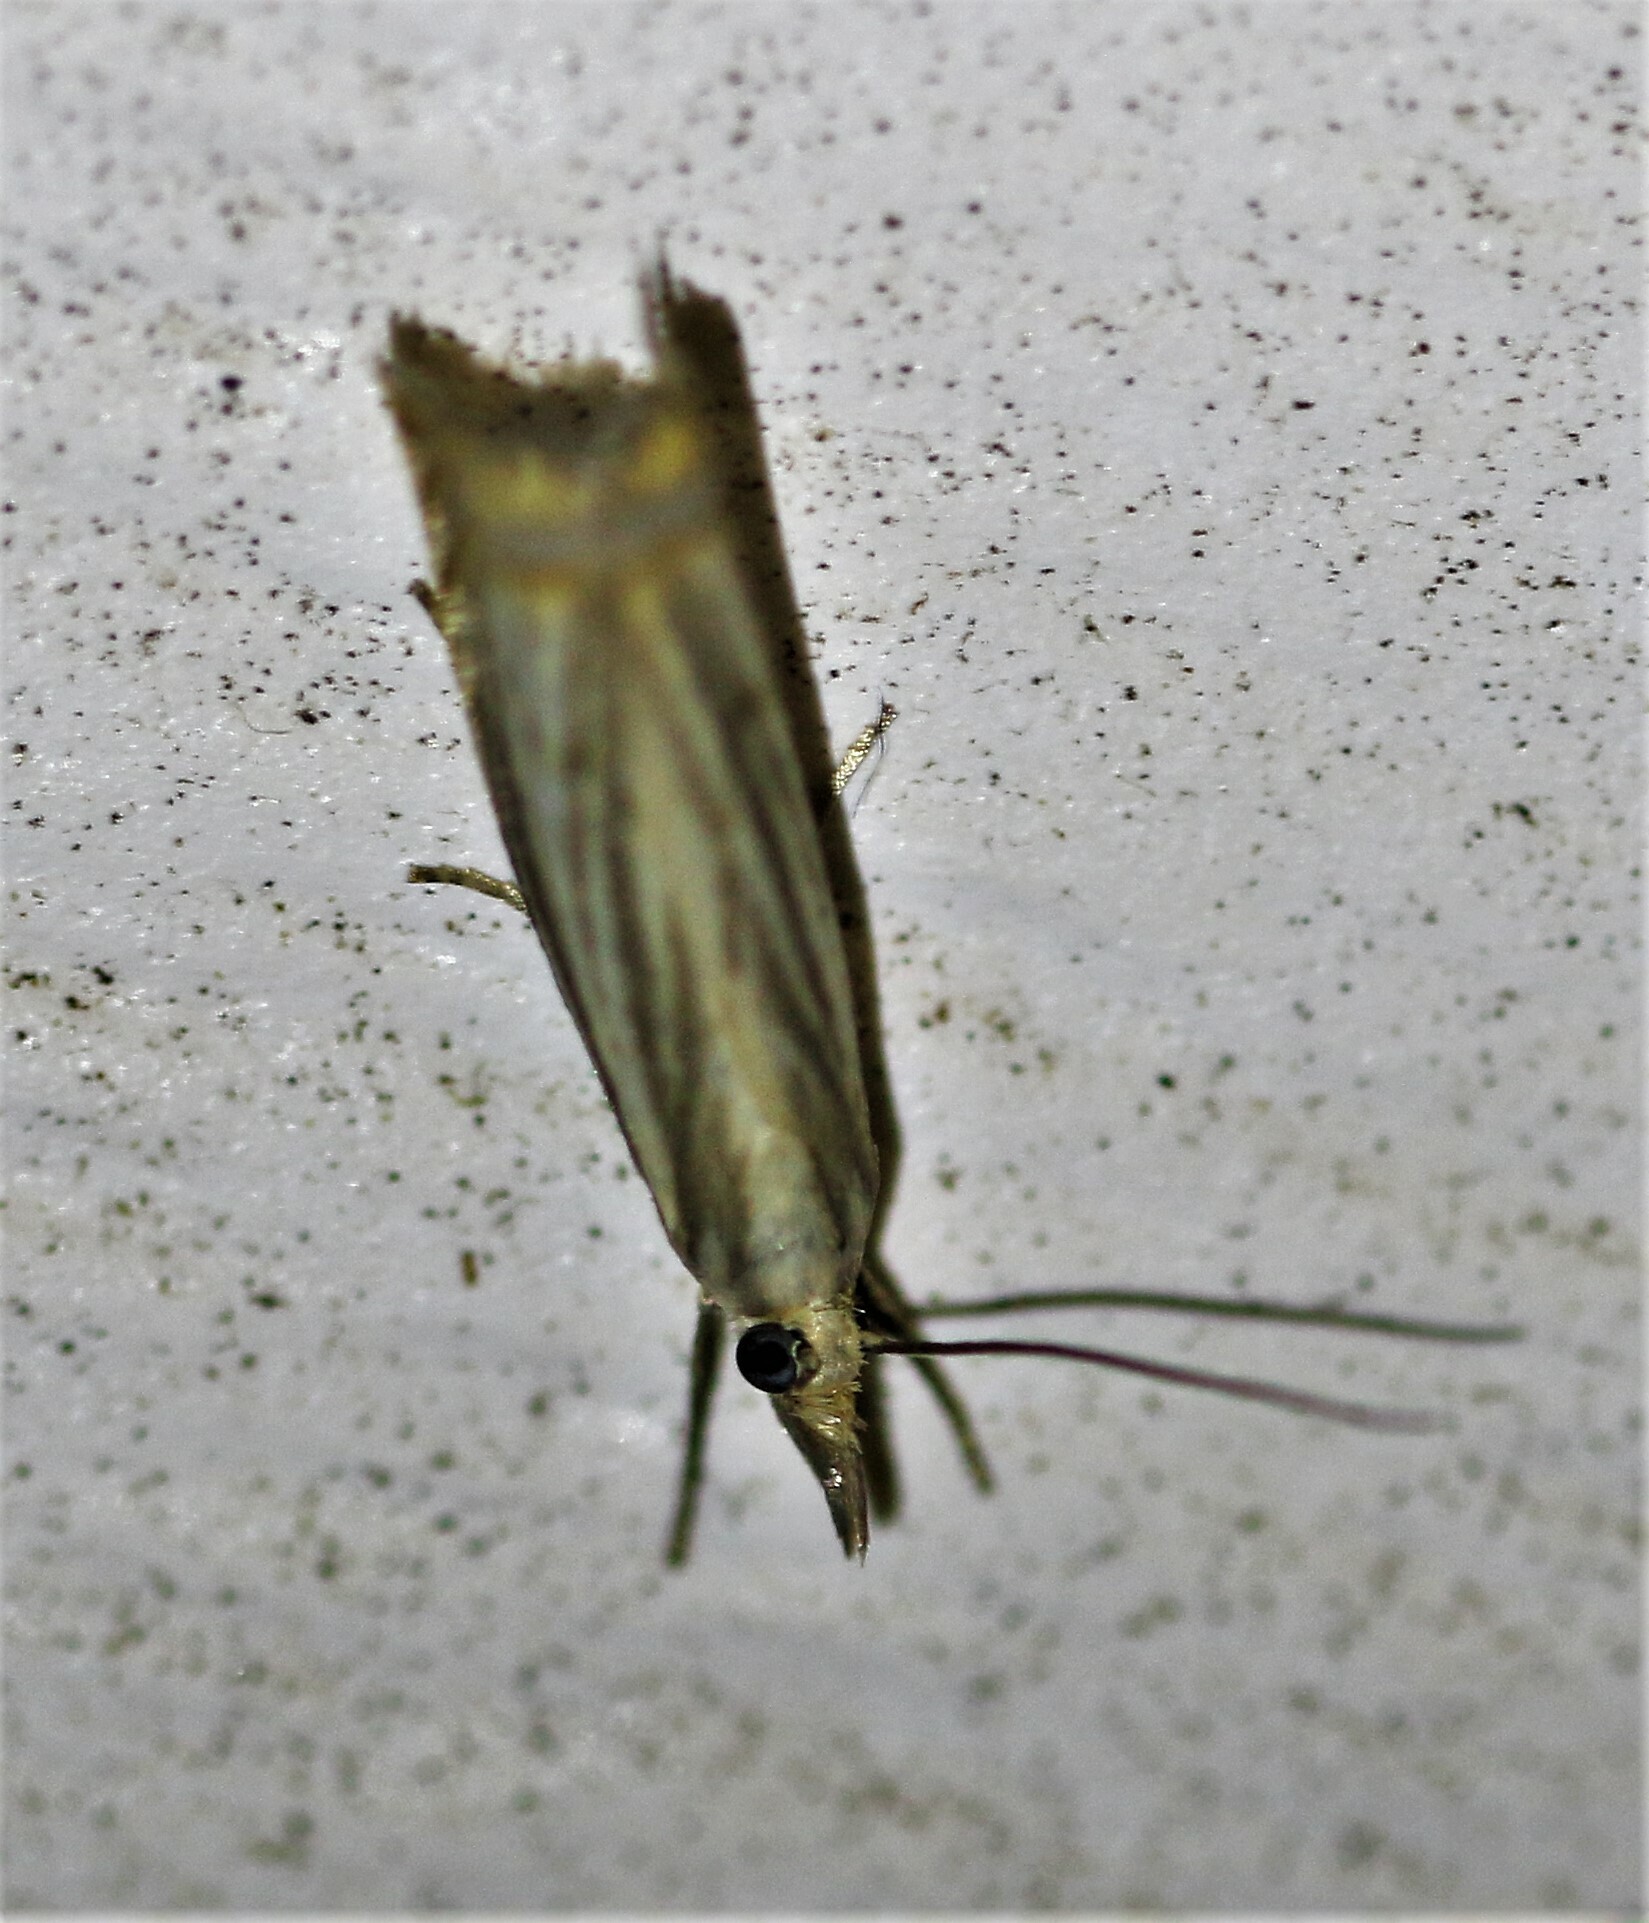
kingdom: Animalia
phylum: Arthropoda
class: Insecta
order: Lepidoptera
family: Crambidae
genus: Chrysoteuchia
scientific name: Chrysoteuchia topiarius
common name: Topiary grass-veneer
